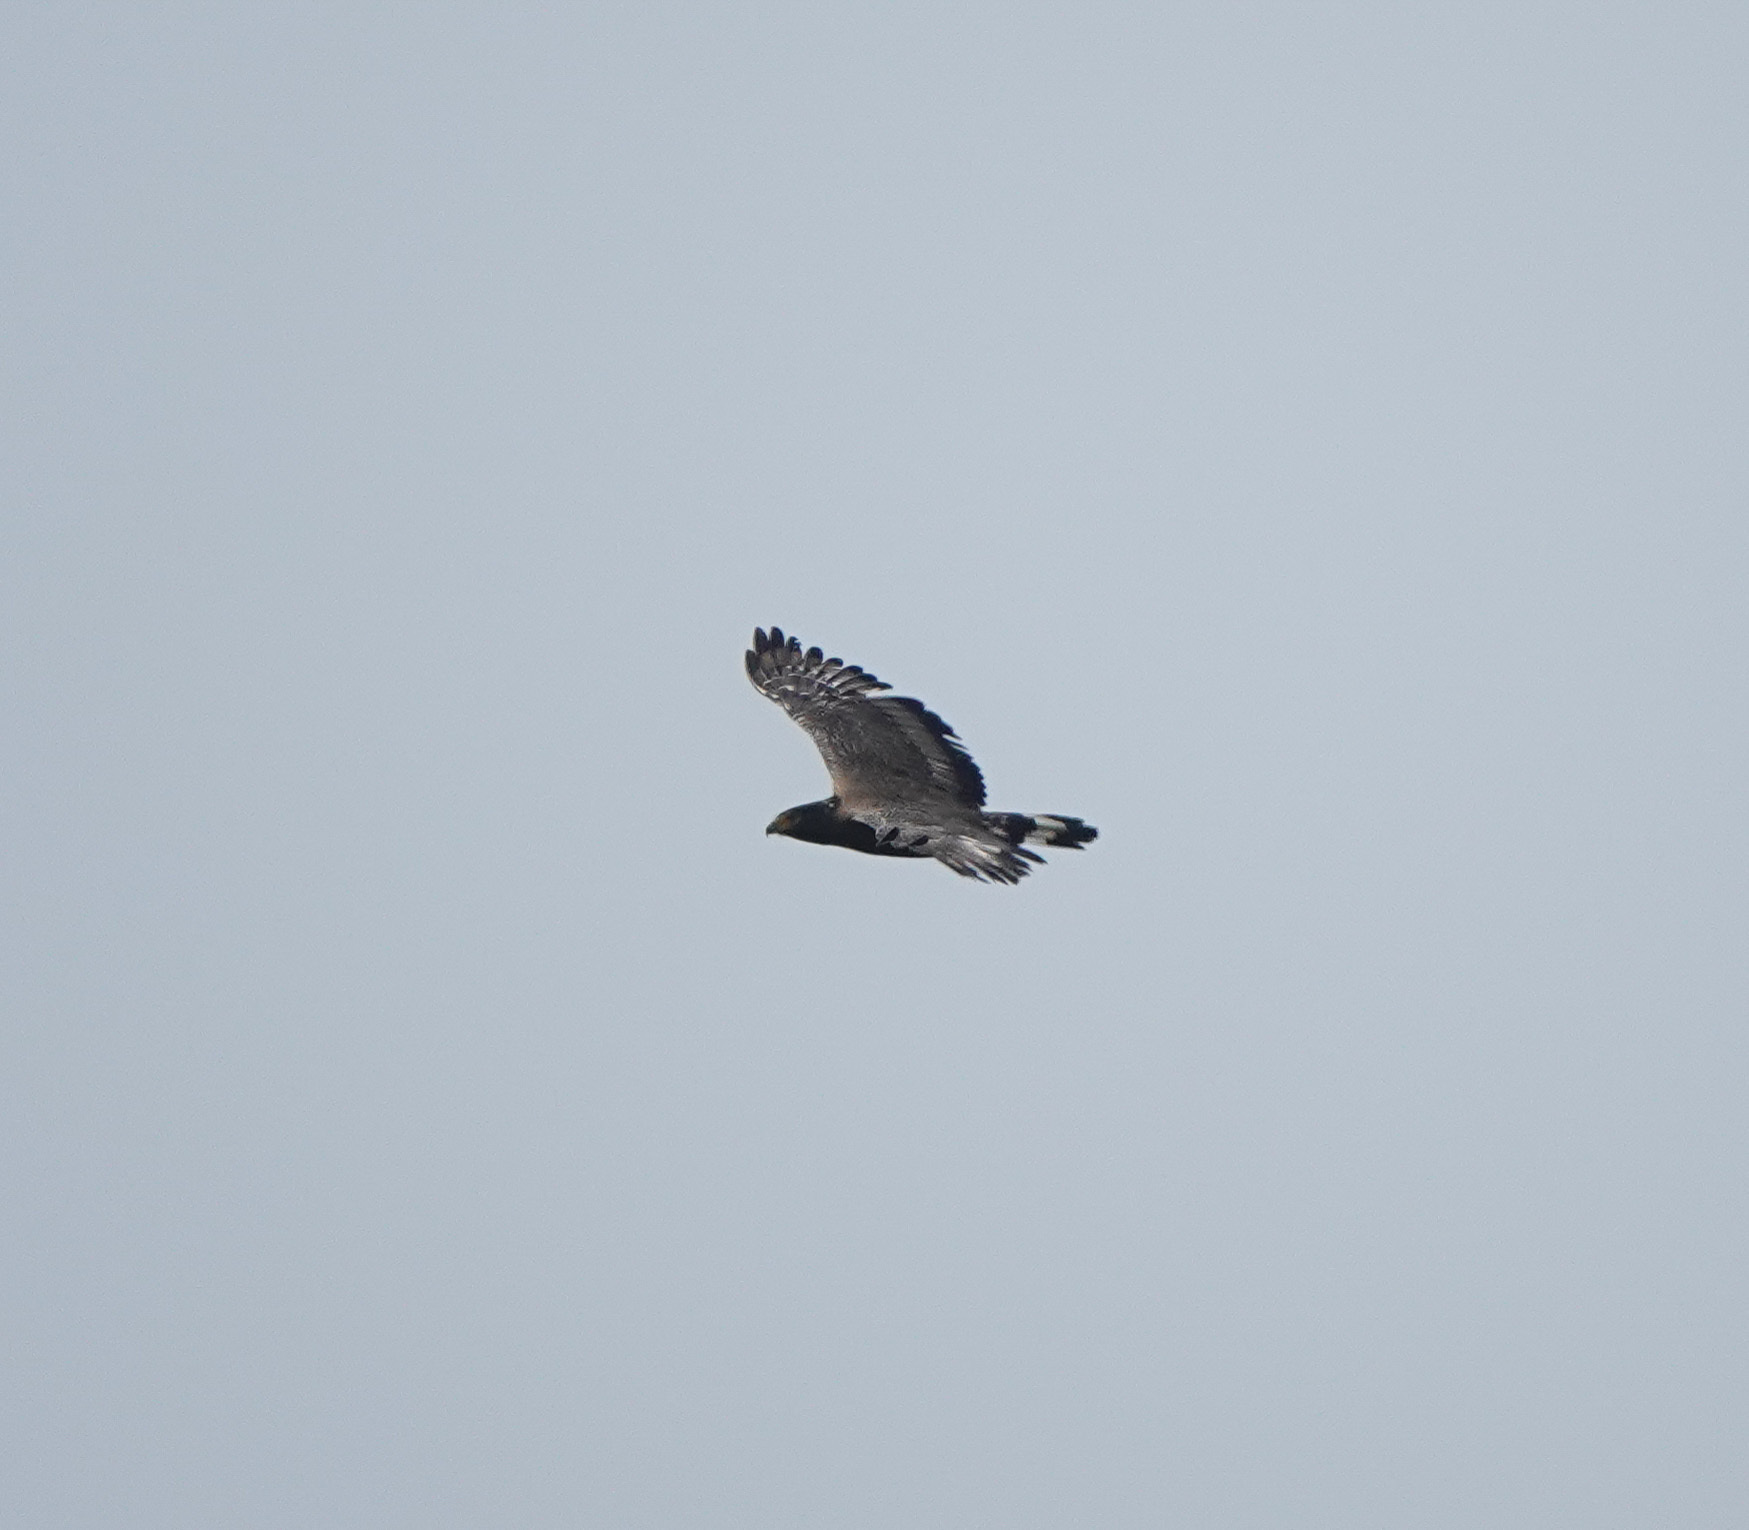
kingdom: Animalia
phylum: Chordata
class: Aves
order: Accipitriformes
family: Accipitridae
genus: Spilornis
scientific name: Spilornis cheela
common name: Crested serpent eagle
